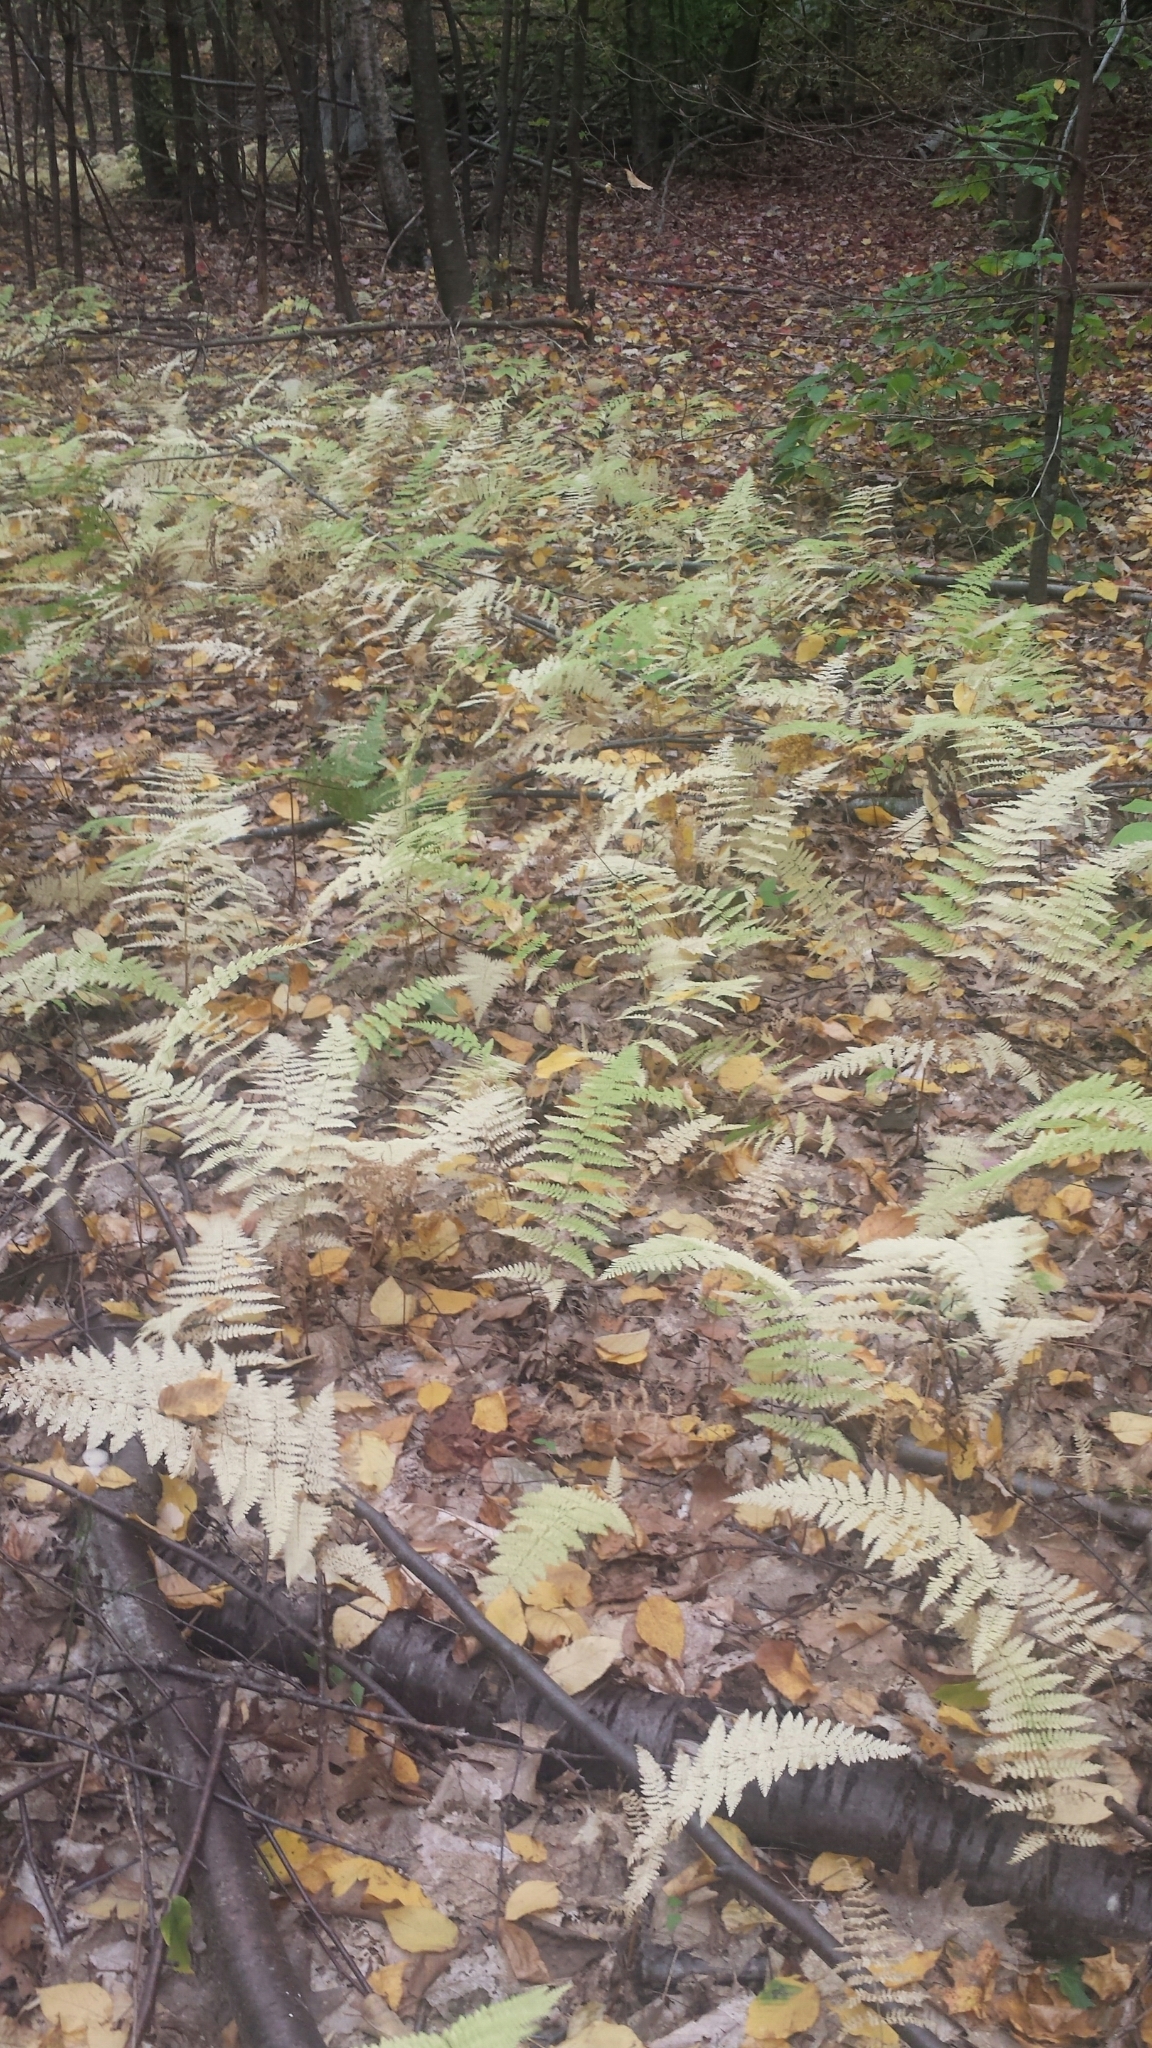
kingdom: Plantae
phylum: Tracheophyta
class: Polypodiopsida
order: Polypodiales
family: Dennstaedtiaceae
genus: Sitobolium
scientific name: Sitobolium punctilobum
